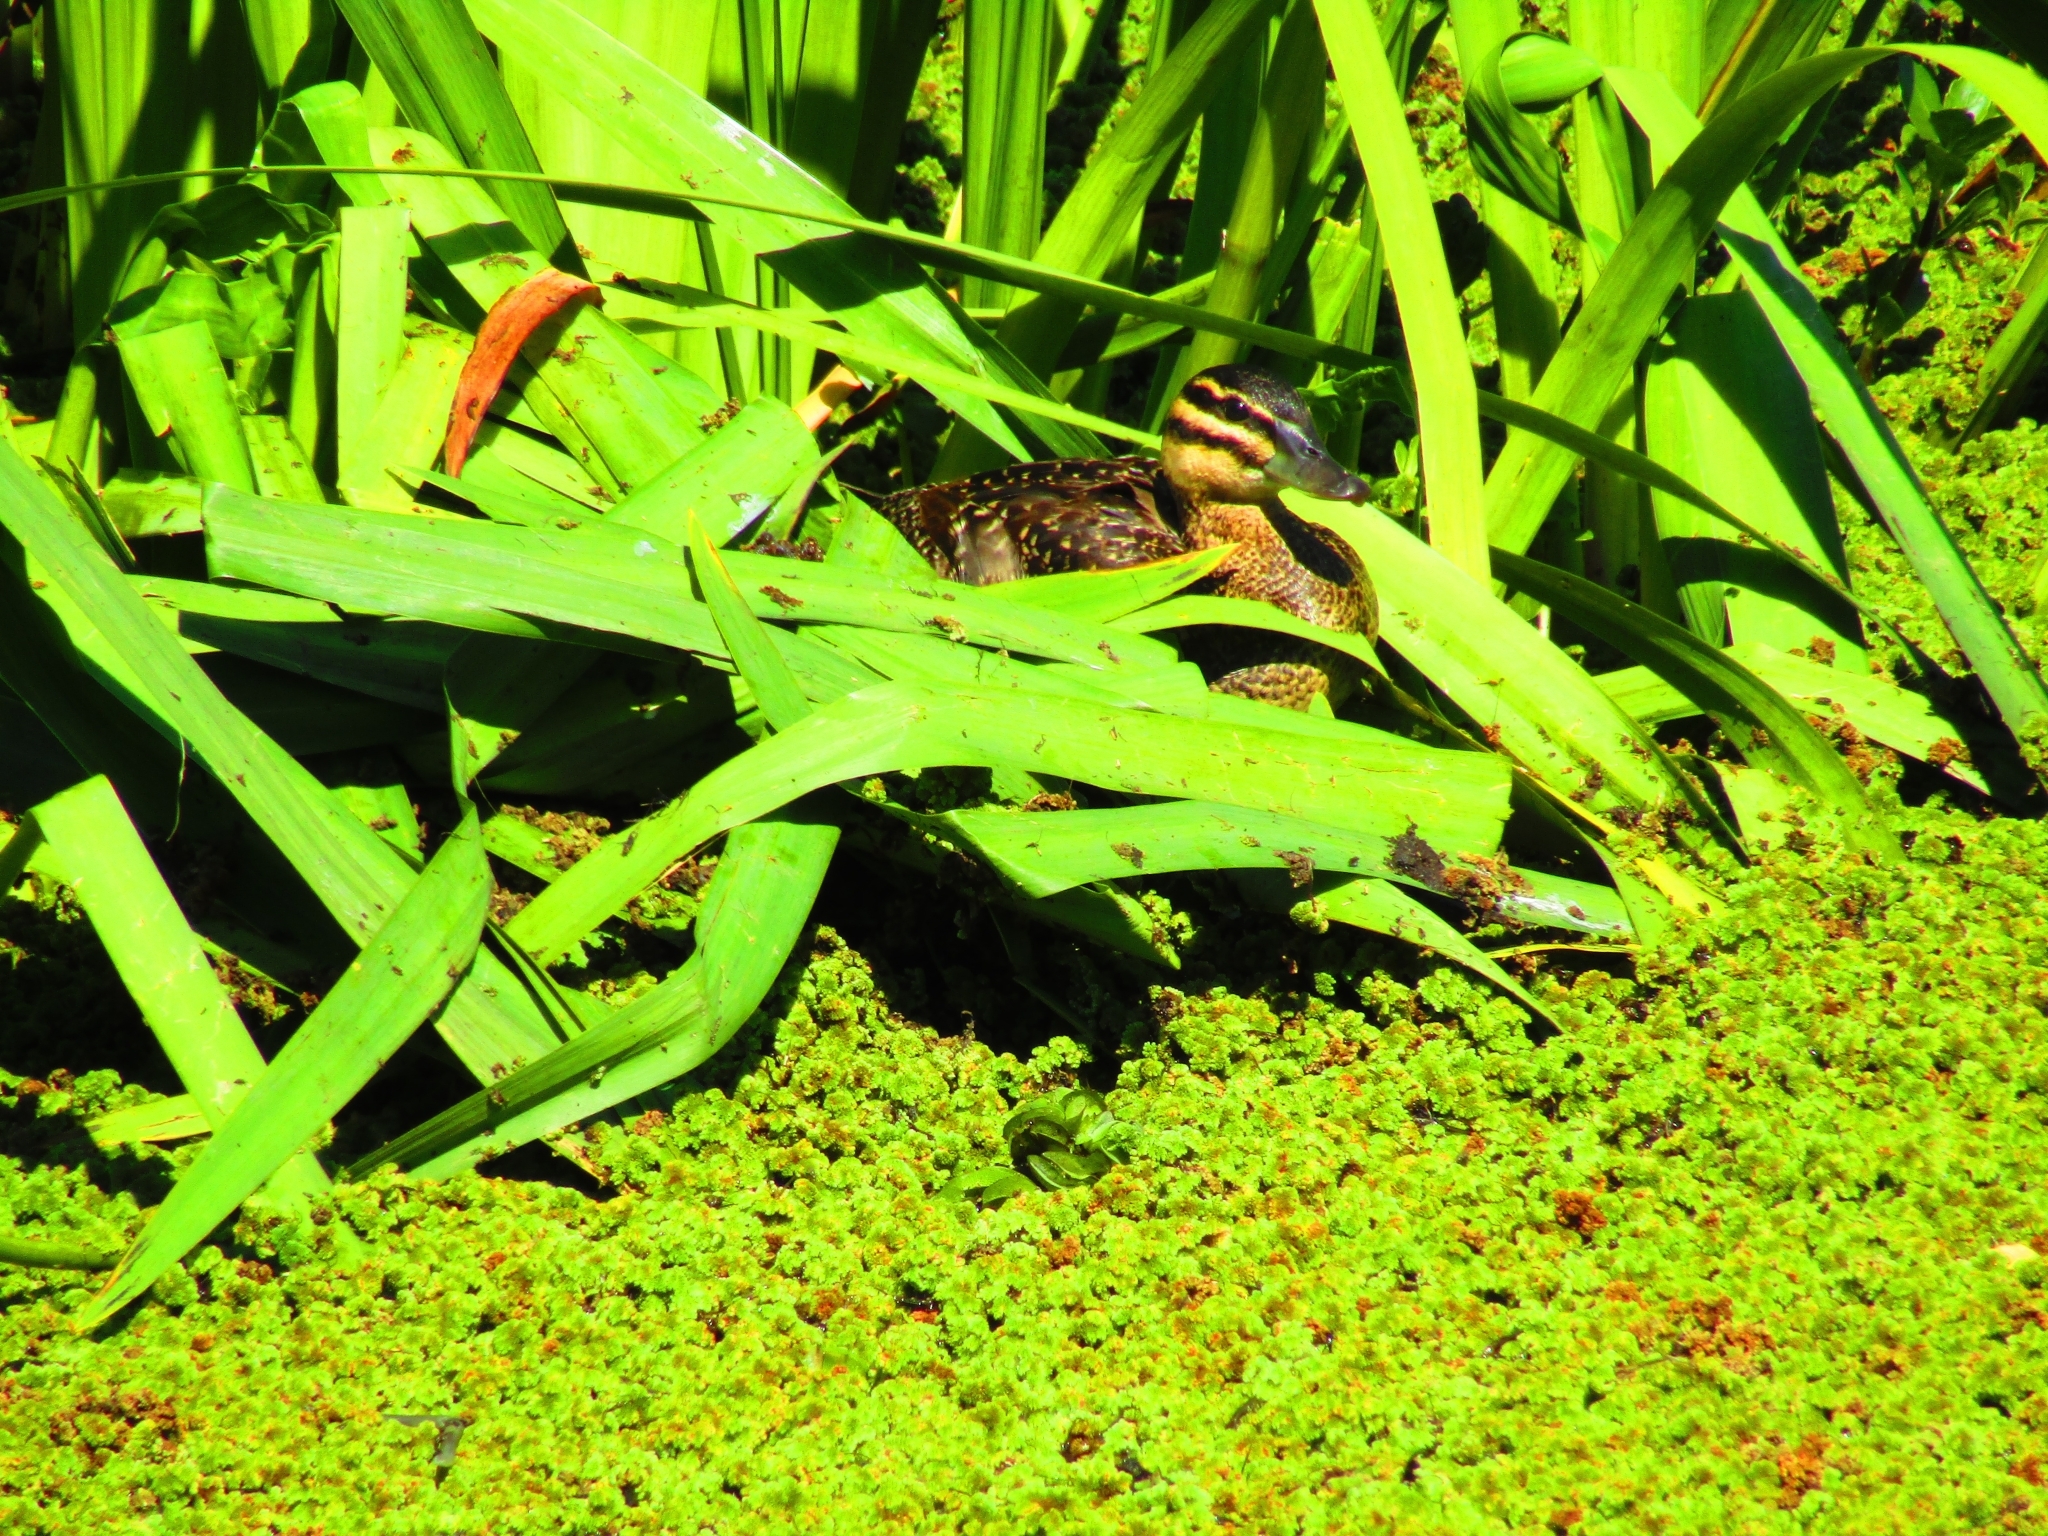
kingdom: Animalia
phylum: Chordata
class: Aves
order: Anseriformes
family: Anatidae
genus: Nomonyx
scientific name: Nomonyx dominicus
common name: Masked duck
